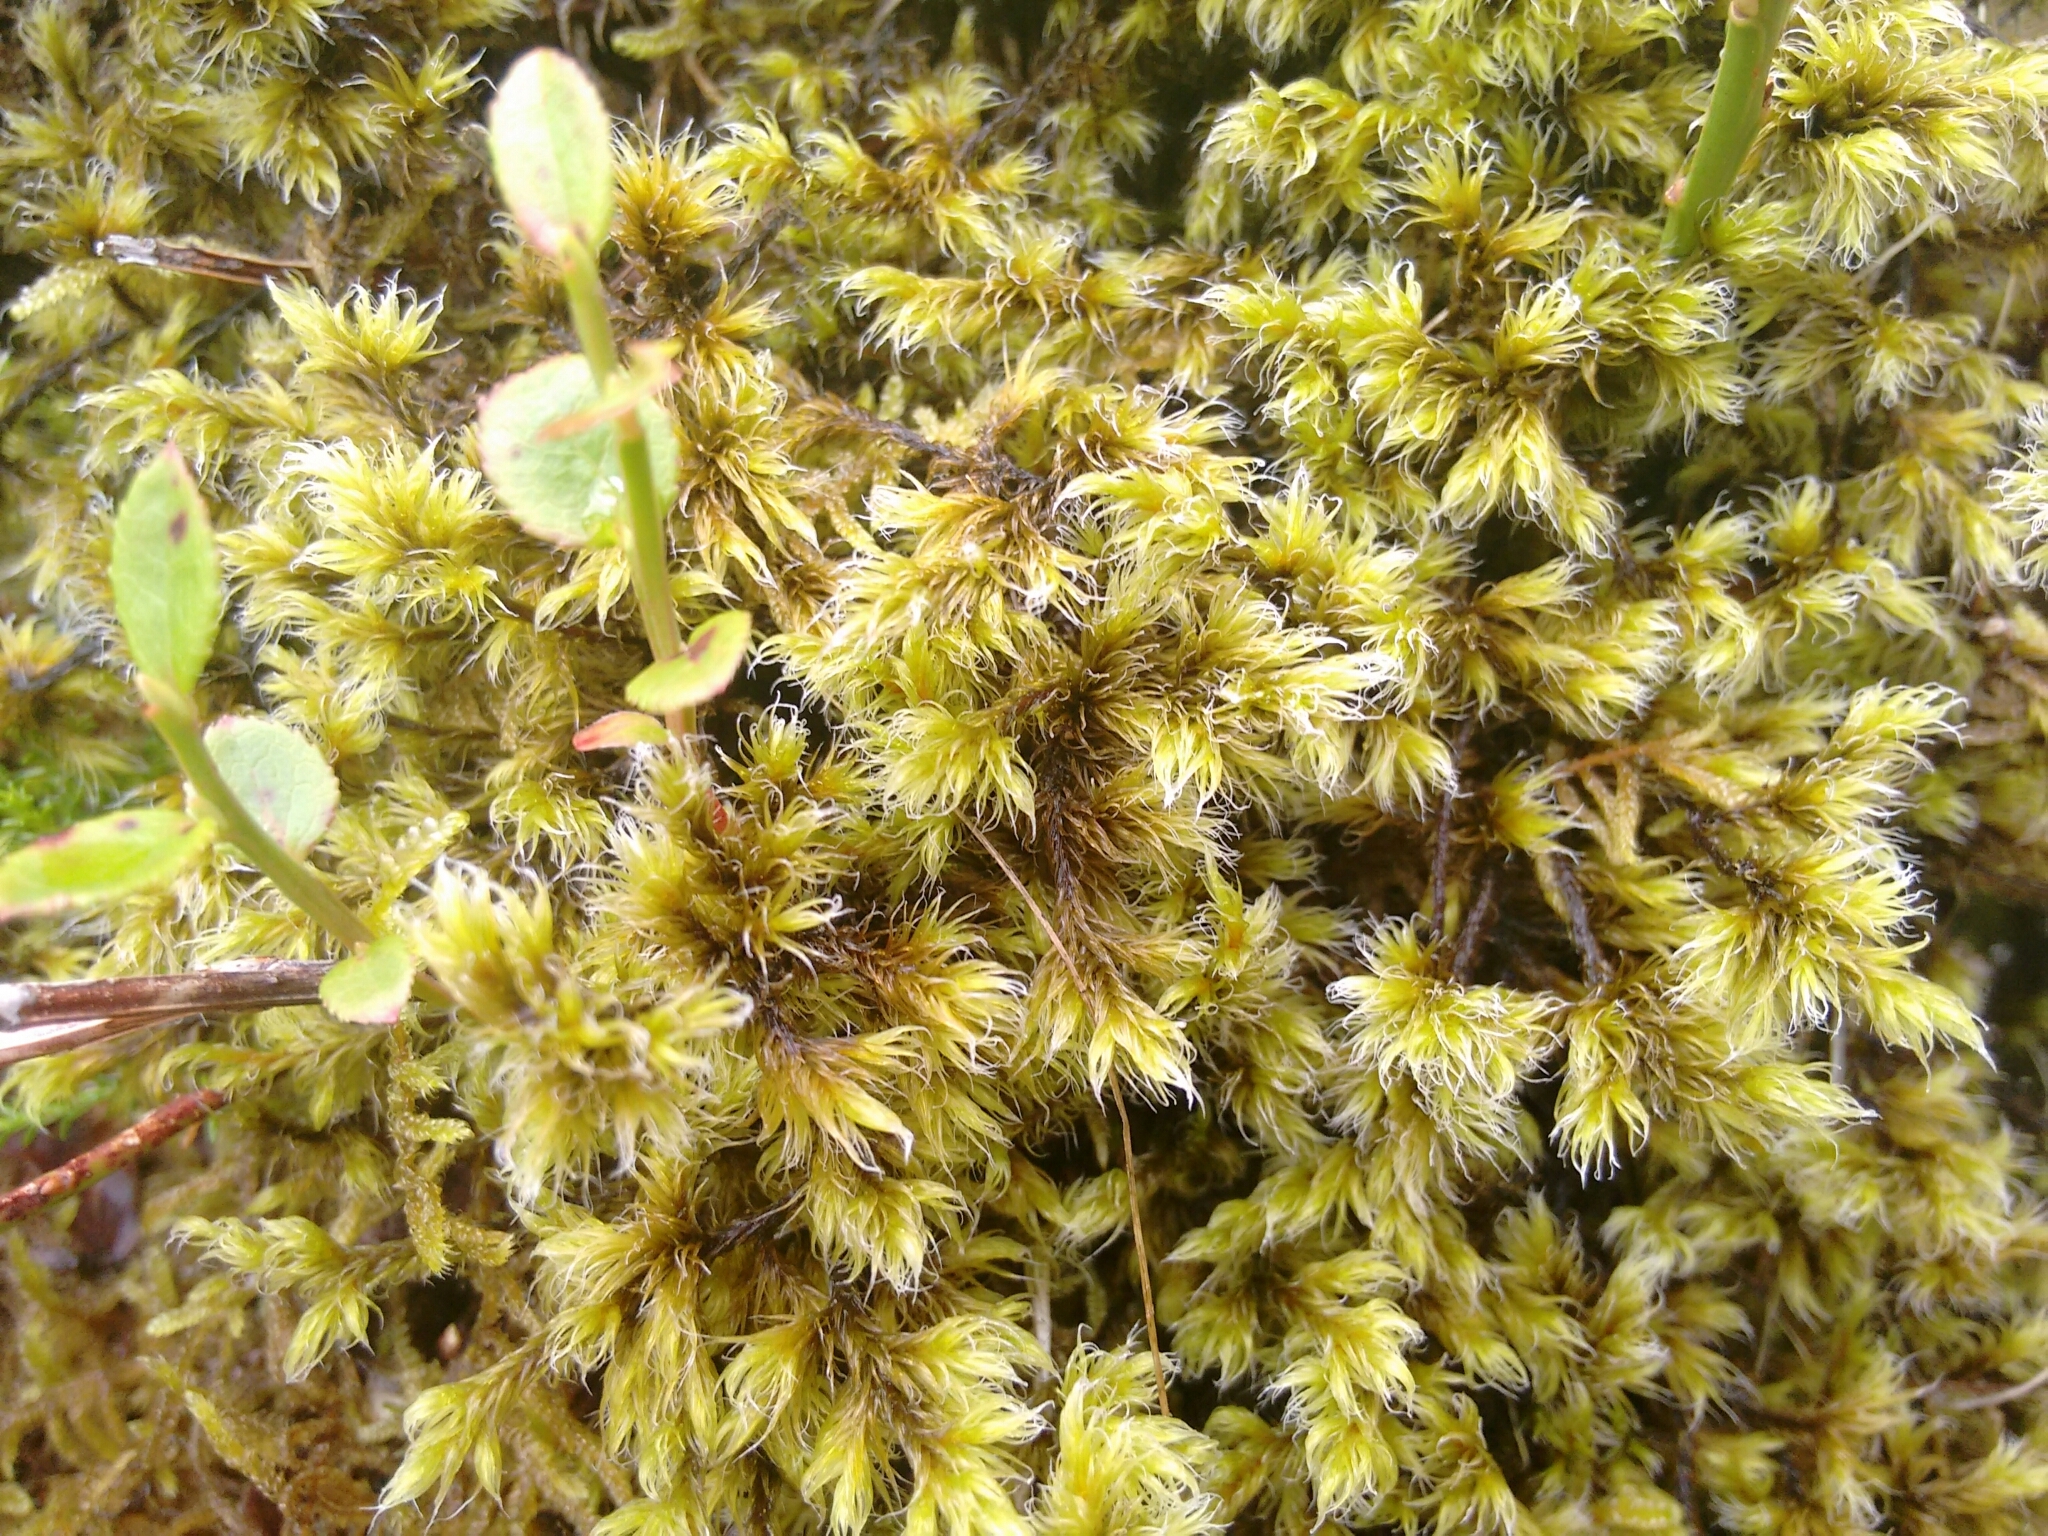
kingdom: Plantae
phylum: Bryophyta
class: Bryopsida
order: Grimmiales
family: Grimmiaceae
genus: Racomitrium
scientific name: Racomitrium lanuginosum
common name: Hoary rock moss
